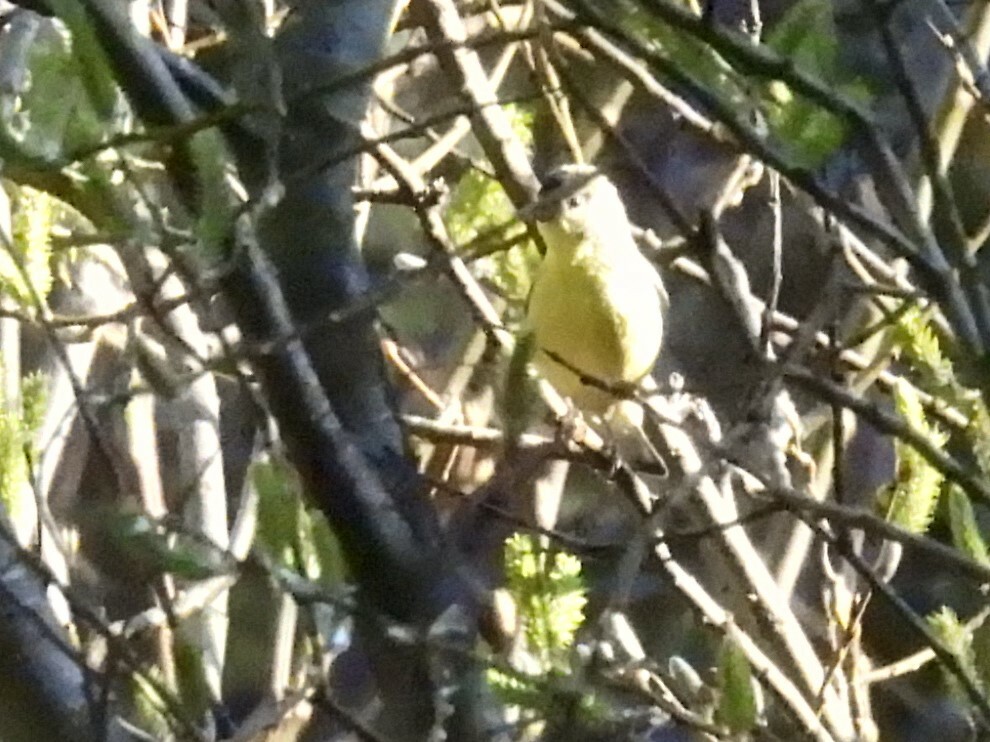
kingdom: Animalia
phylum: Chordata
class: Aves
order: Passeriformes
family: Fringillidae
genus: Spinus
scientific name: Spinus psaltria
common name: Lesser goldfinch
